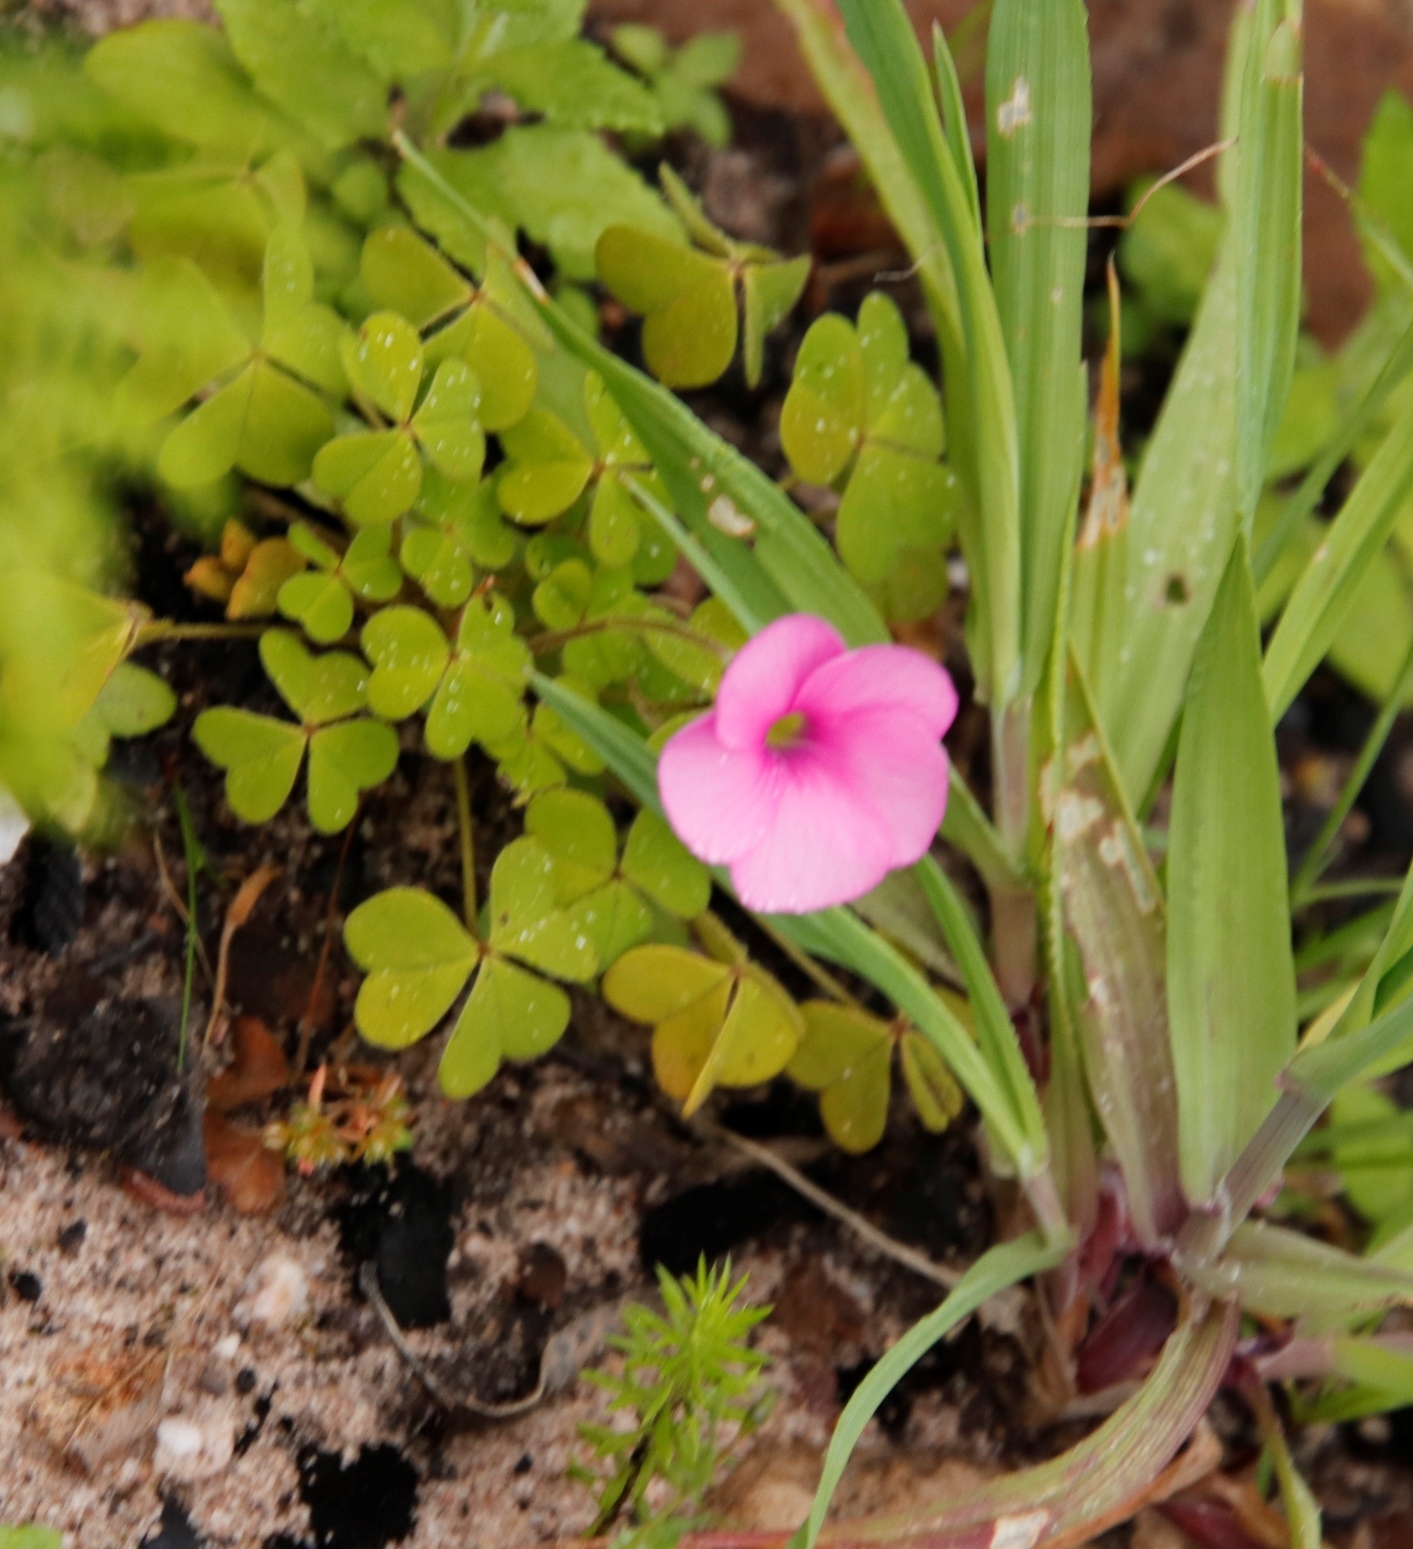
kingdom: Plantae
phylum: Tracheophyta
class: Magnoliopsida
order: Oxalidales
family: Oxalidaceae
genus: Oxalis
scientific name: Oxalis lanata
